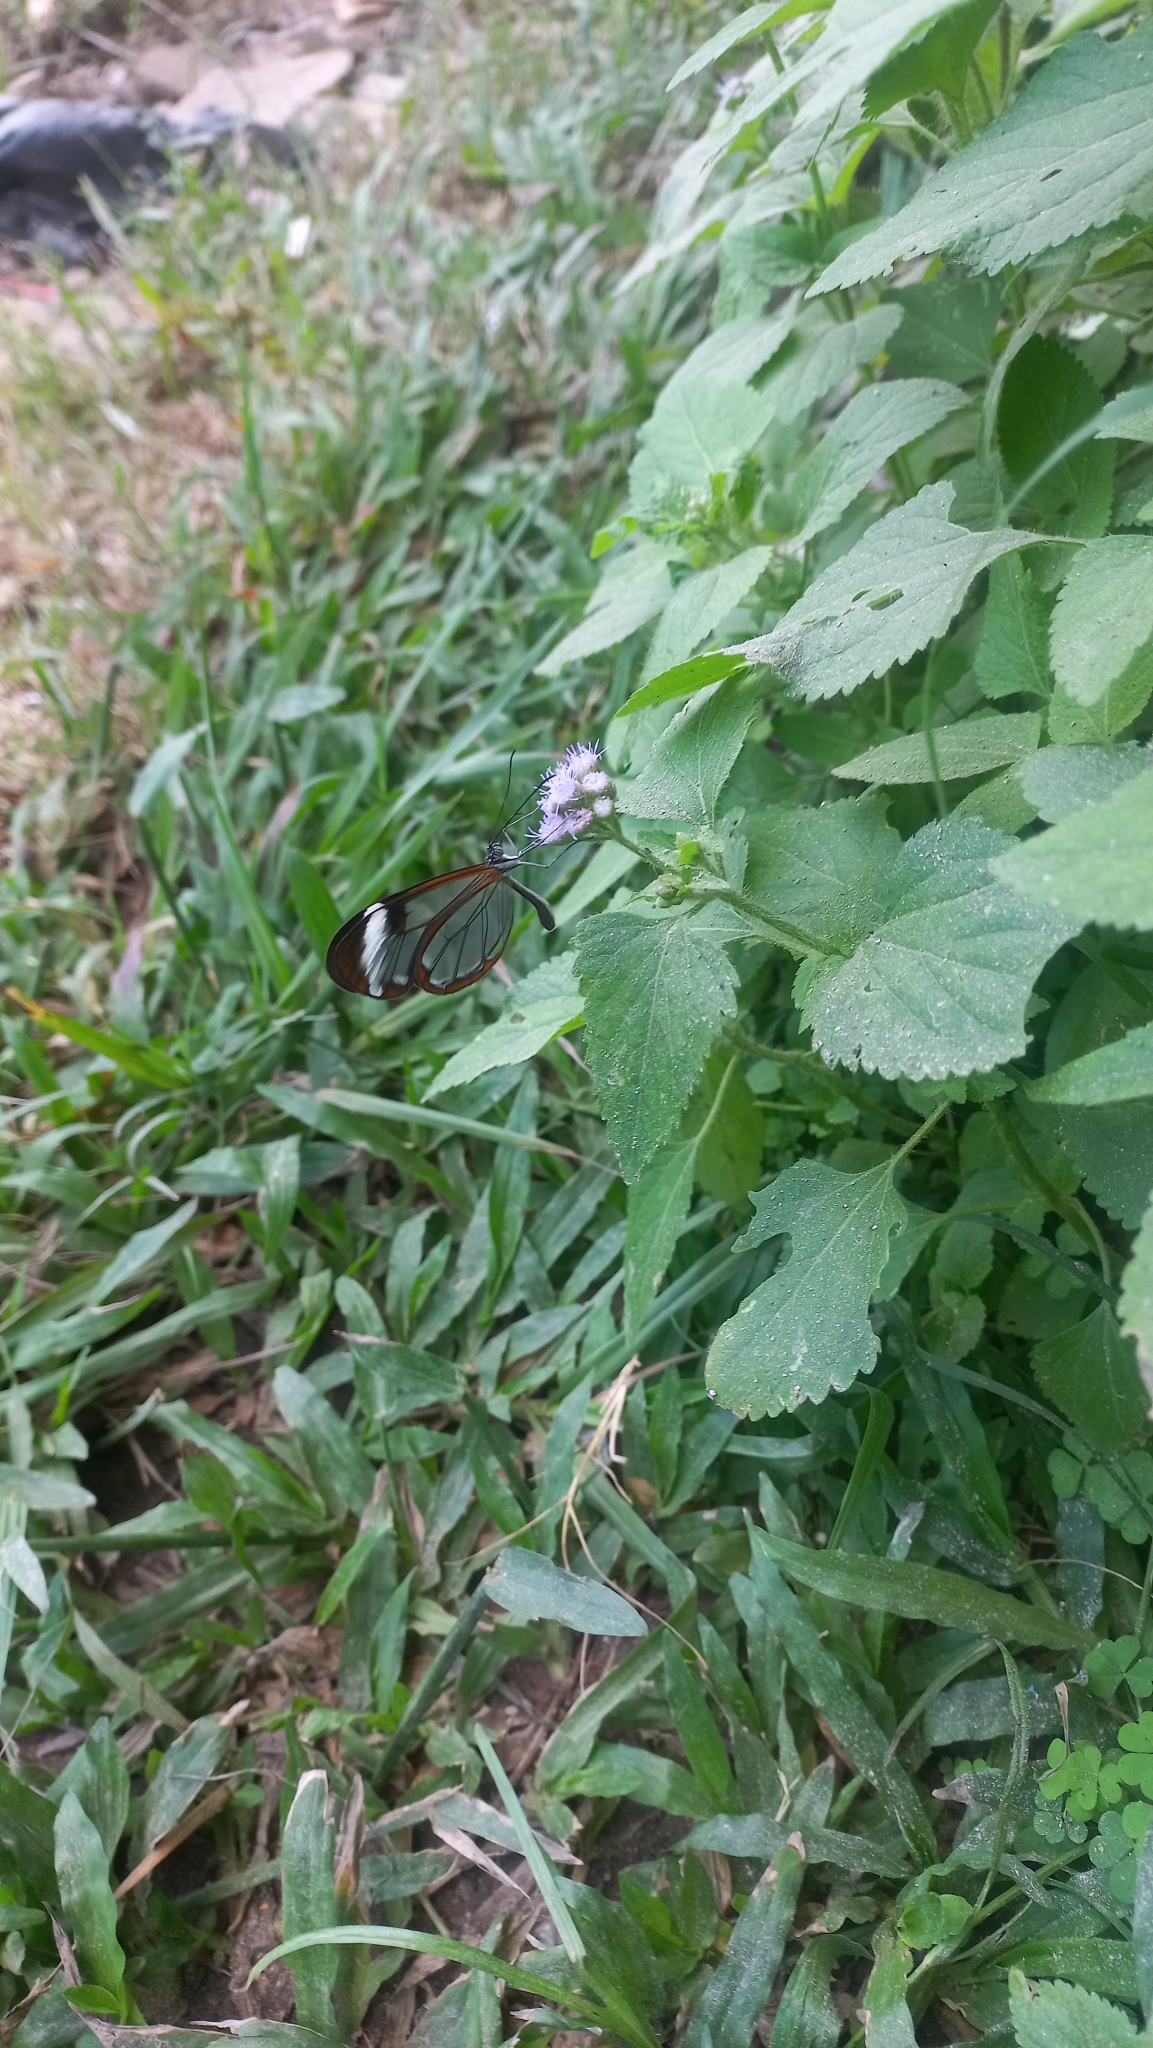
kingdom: Animalia
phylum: Arthropoda
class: Insecta
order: Lepidoptera
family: Nymphalidae
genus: Greta
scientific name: Greta morgane
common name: Thick-tipped greta
